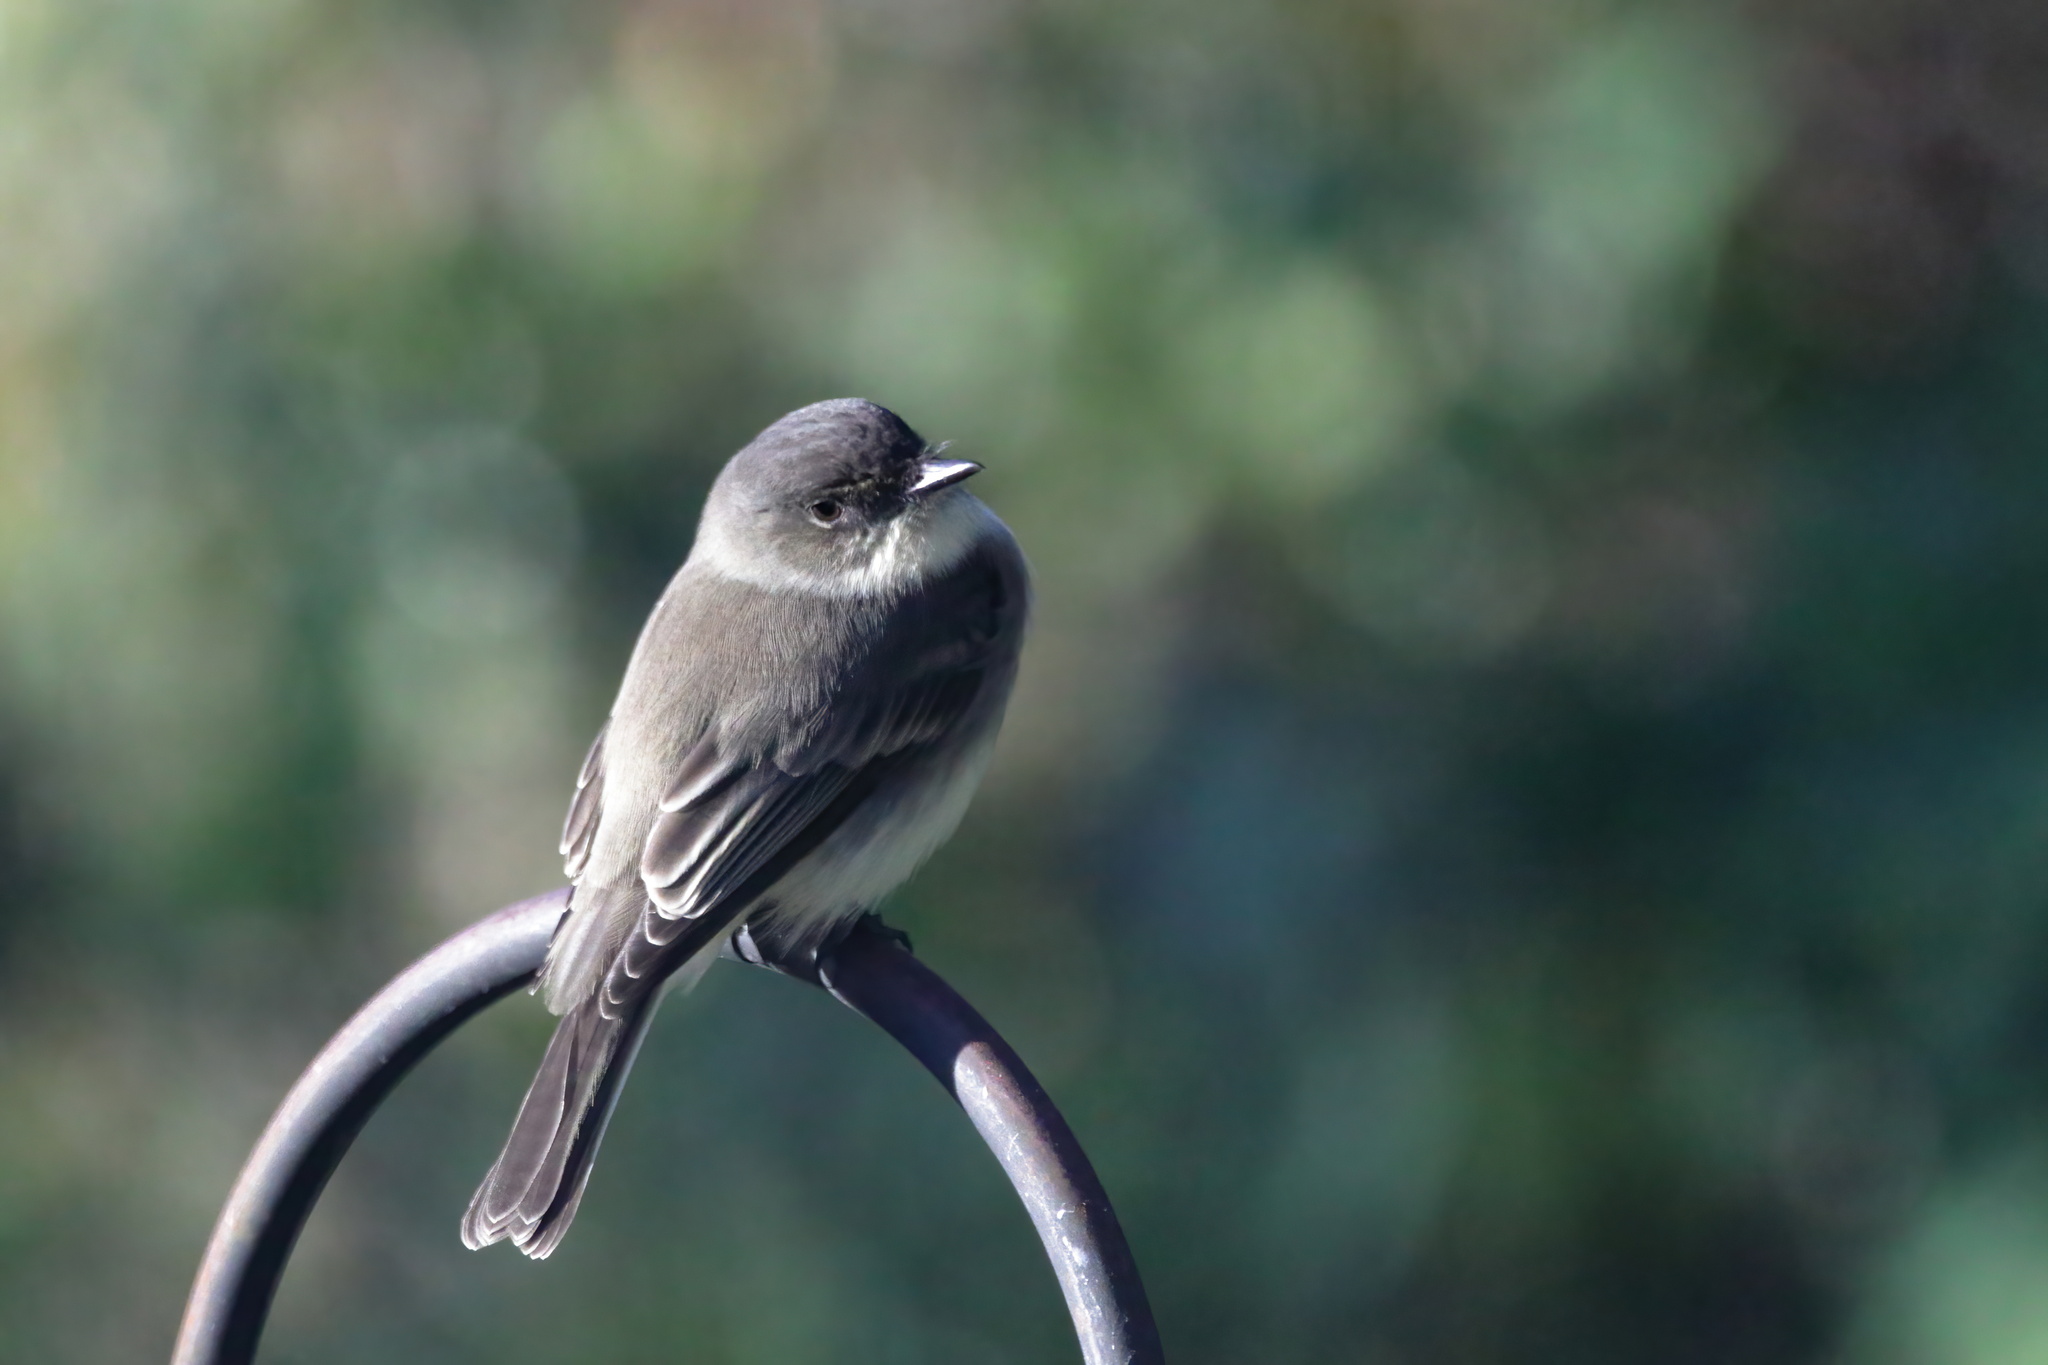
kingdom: Animalia
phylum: Chordata
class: Aves
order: Passeriformes
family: Tyrannidae
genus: Sayornis
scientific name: Sayornis phoebe
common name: Eastern phoebe
